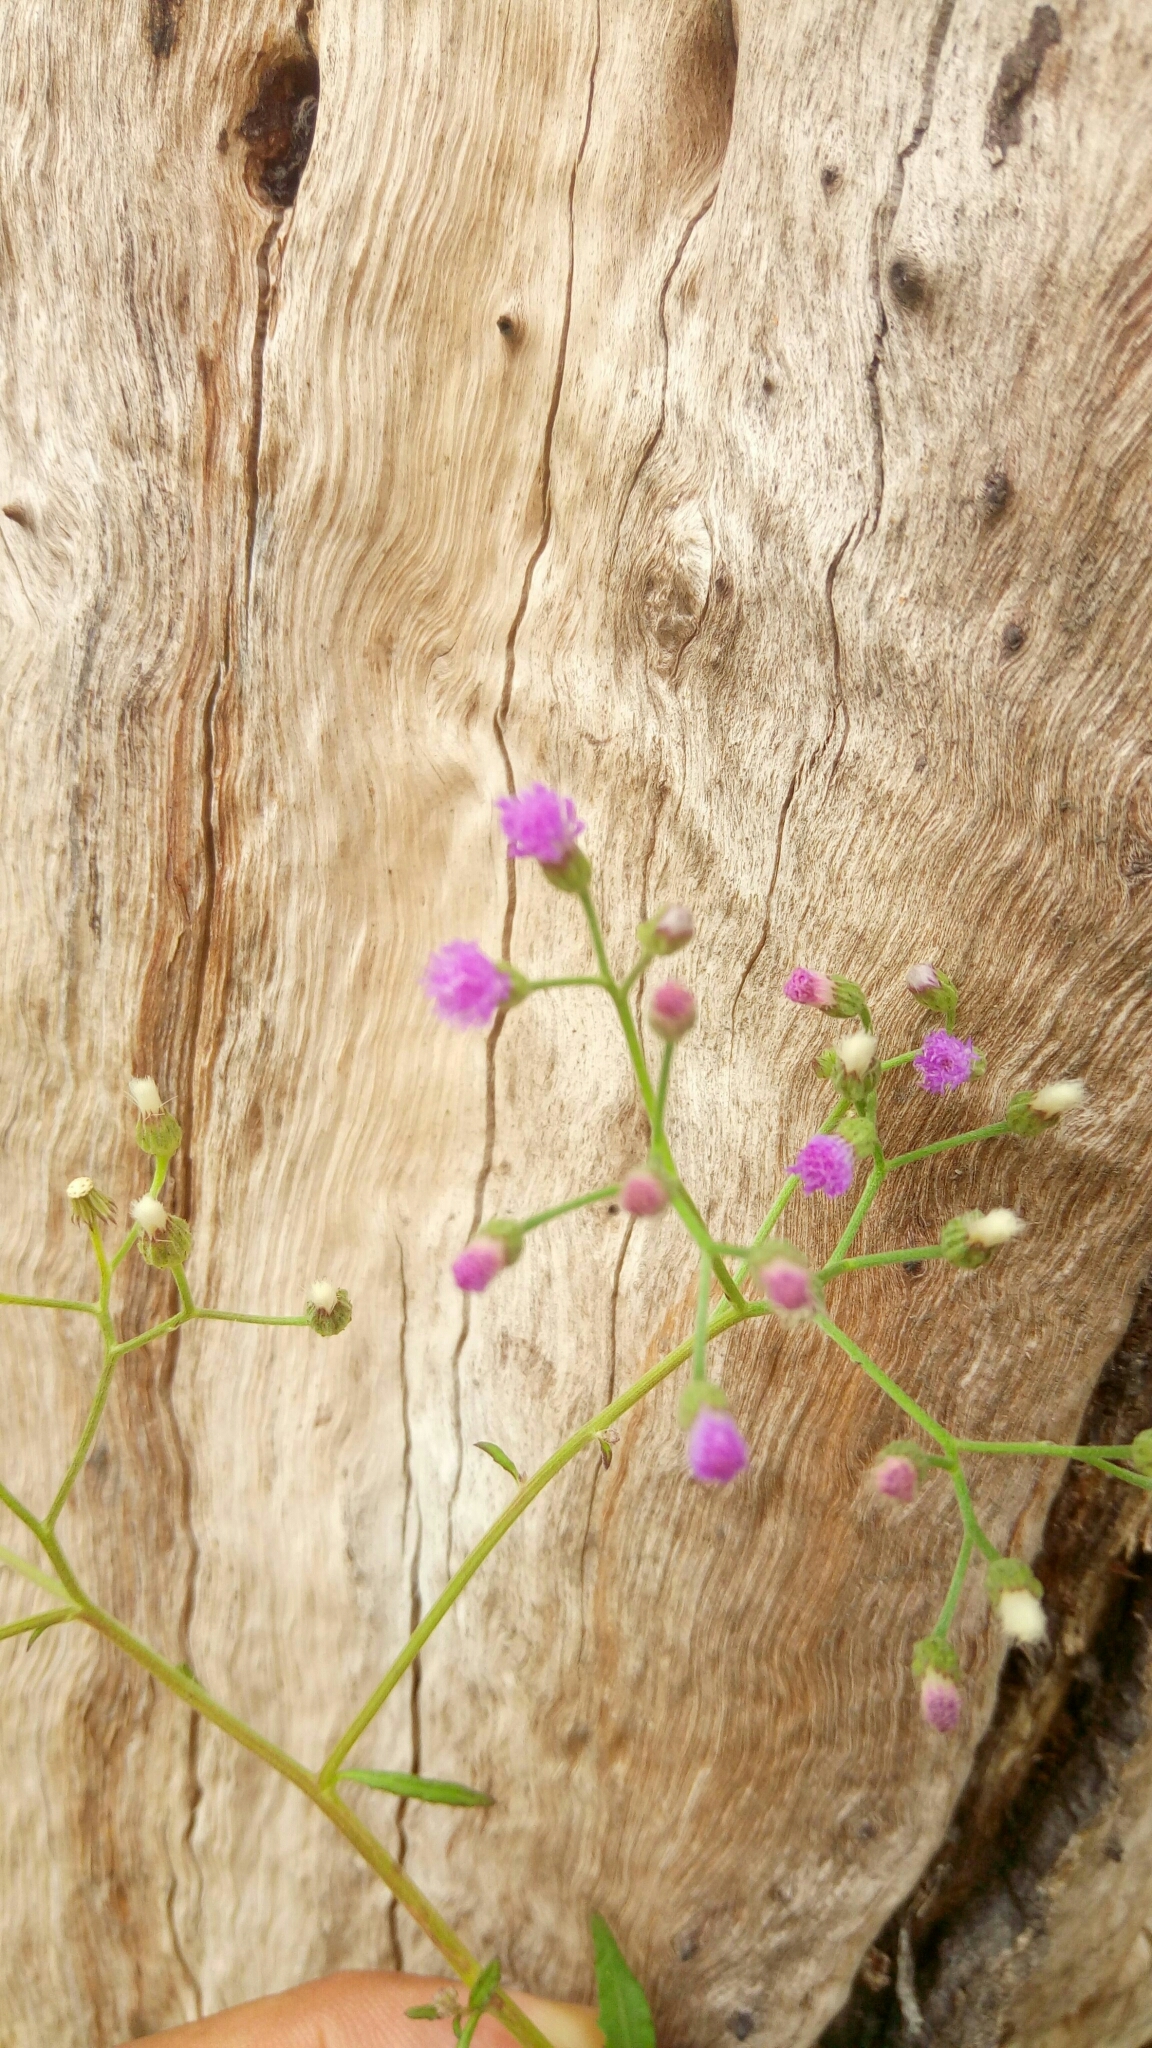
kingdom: Plantae
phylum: Tracheophyta
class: Magnoliopsida
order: Asterales
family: Asteraceae
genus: Cyanthillium
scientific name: Cyanthillium cinereum
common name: Little ironweed
